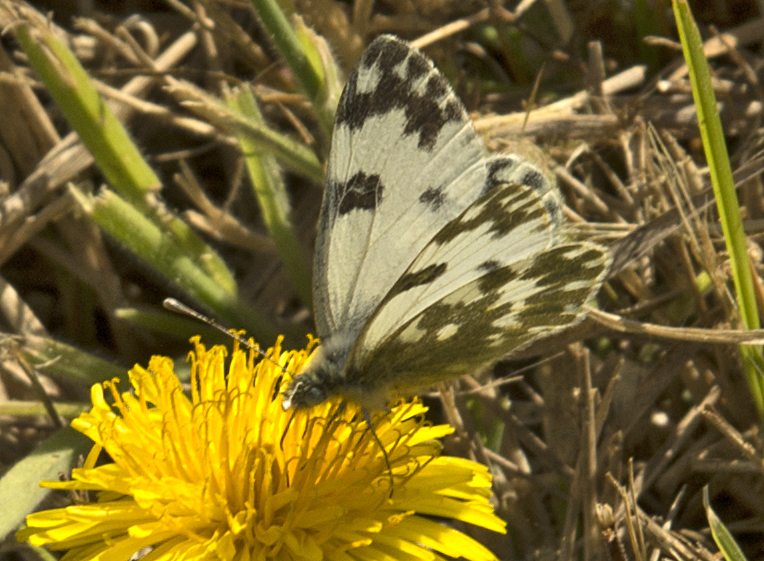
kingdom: Animalia
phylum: Arthropoda
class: Insecta
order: Lepidoptera
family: Pieridae
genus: Pontia
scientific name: Pontia edusa
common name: Eastern bath white
